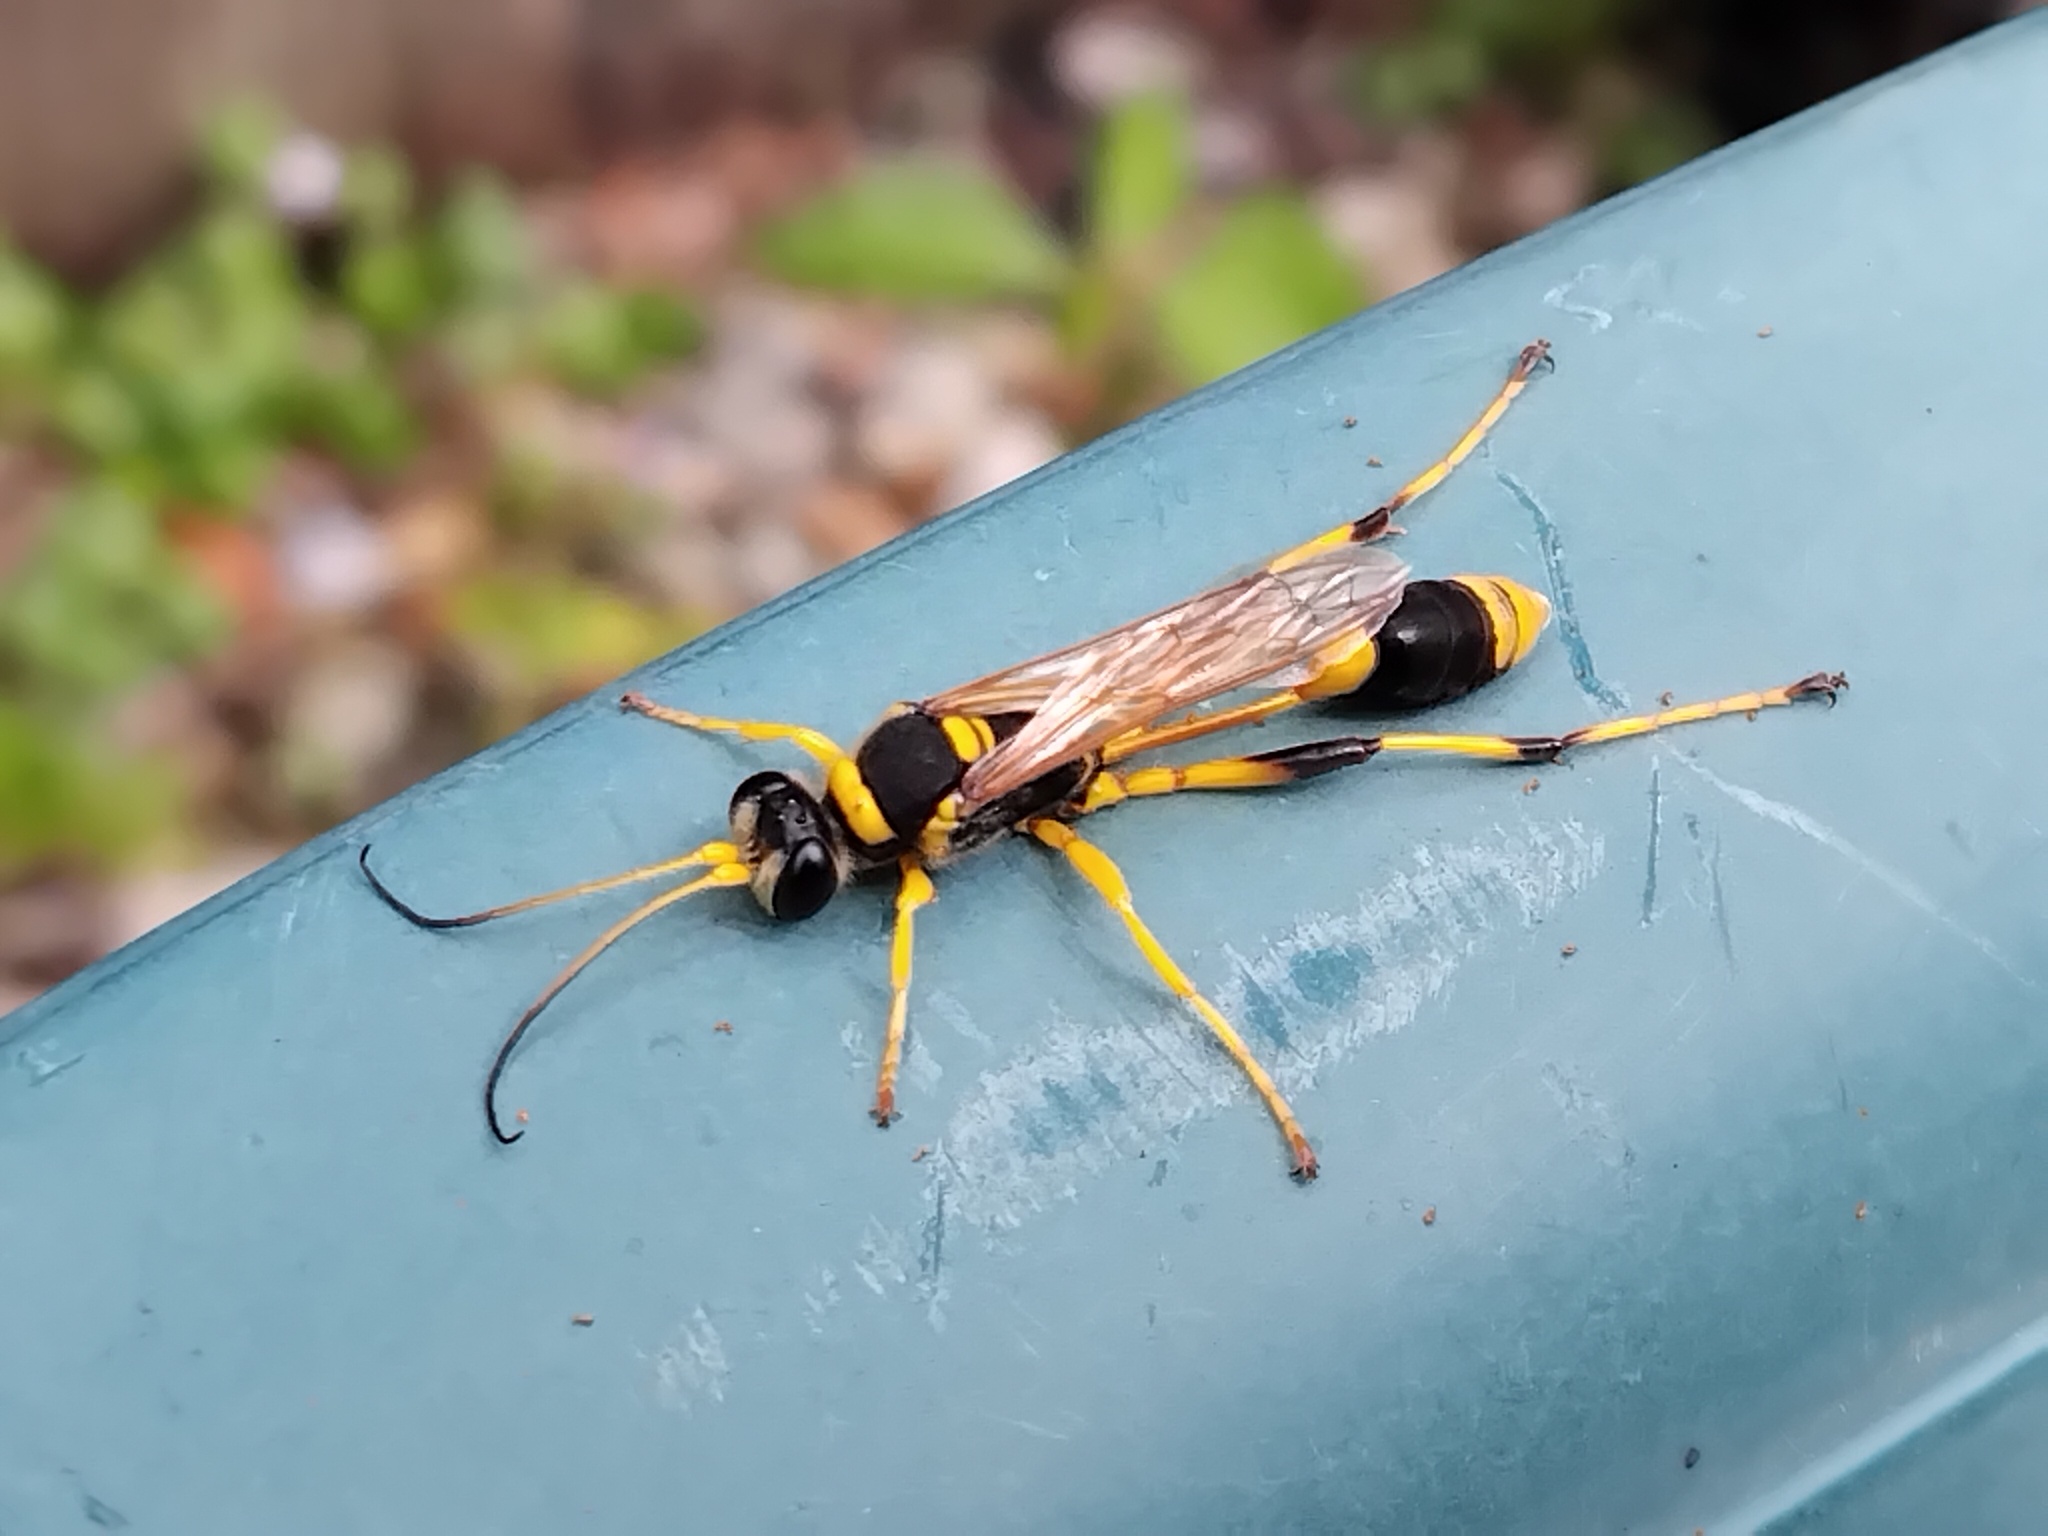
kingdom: Animalia
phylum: Arthropoda
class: Insecta
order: Hymenoptera
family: Sphecidae
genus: Sceliphron
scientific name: Sceliphron laetum
